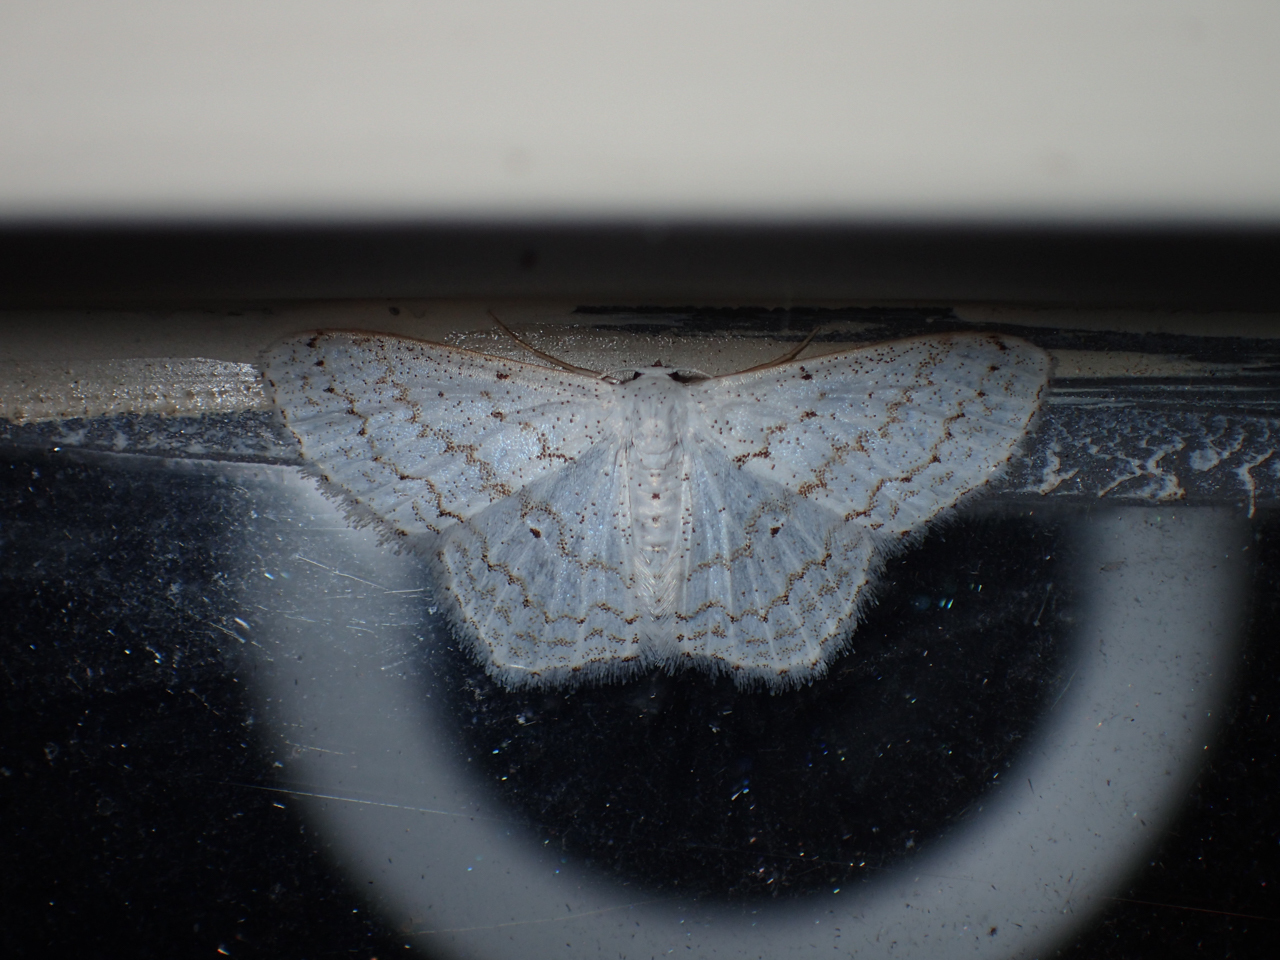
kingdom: Animalia
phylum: Arthropoda
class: Insecta
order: Lepidoptera
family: Geometridae
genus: Idaea
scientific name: Idaea tacturata
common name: Dot-lined wave
